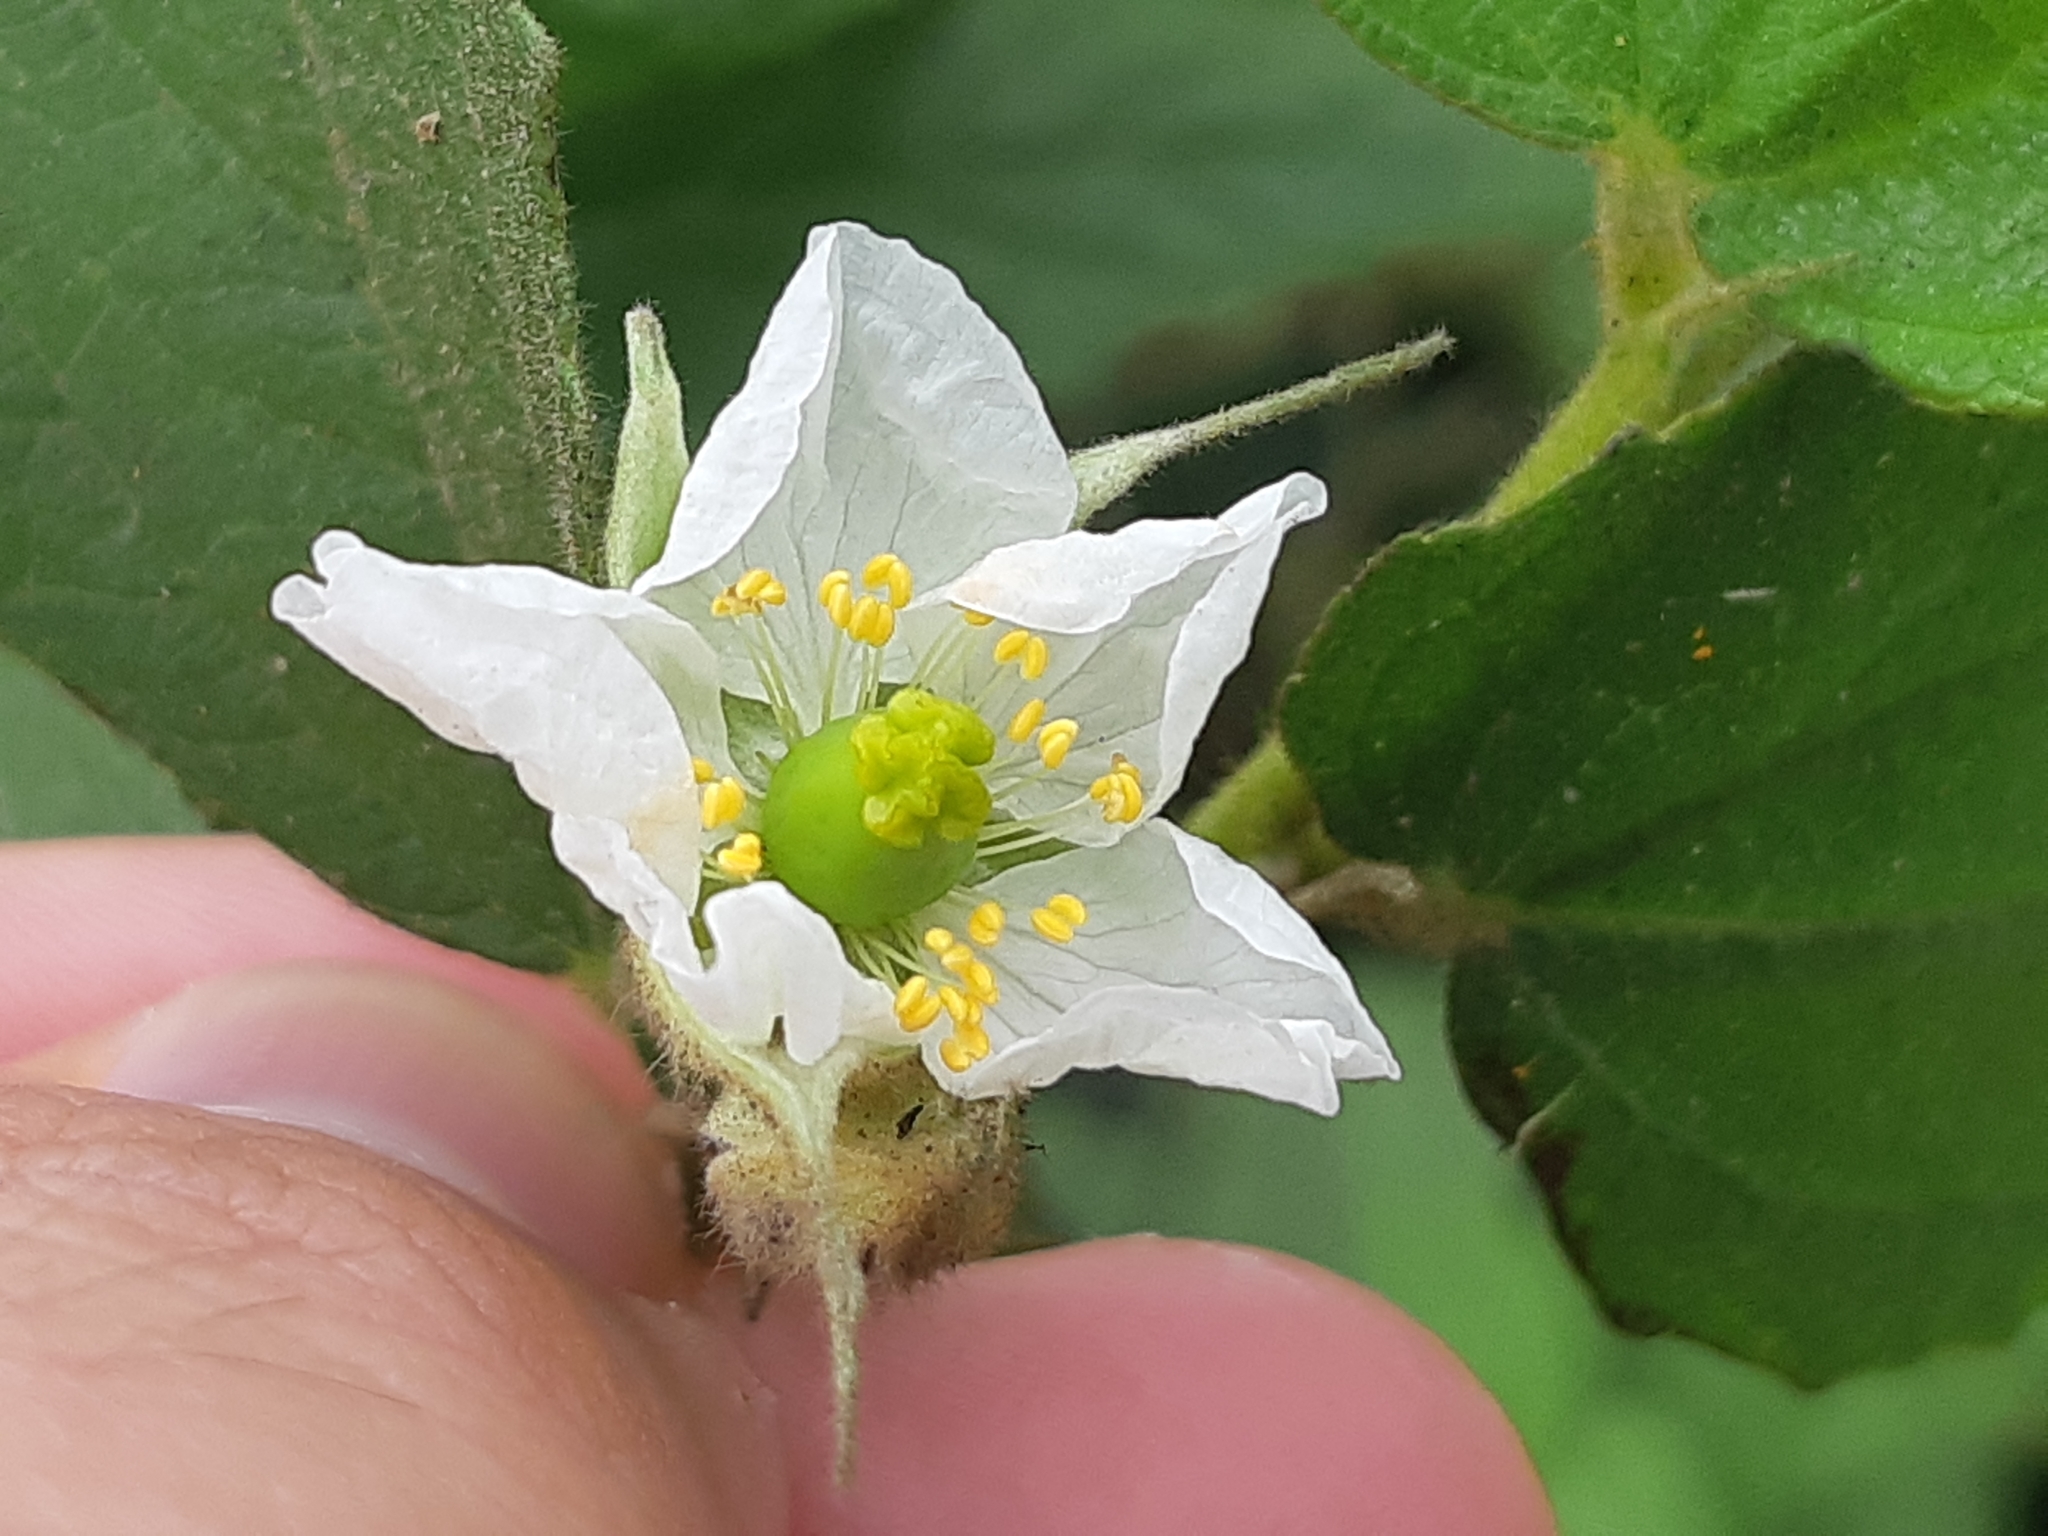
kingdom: Plantae
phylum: Tracheophyta
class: Magnoliopsida
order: Malvales
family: Muntingiaceae
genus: Muntingia
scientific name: Muntingia calabura
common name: Strawberrytree
